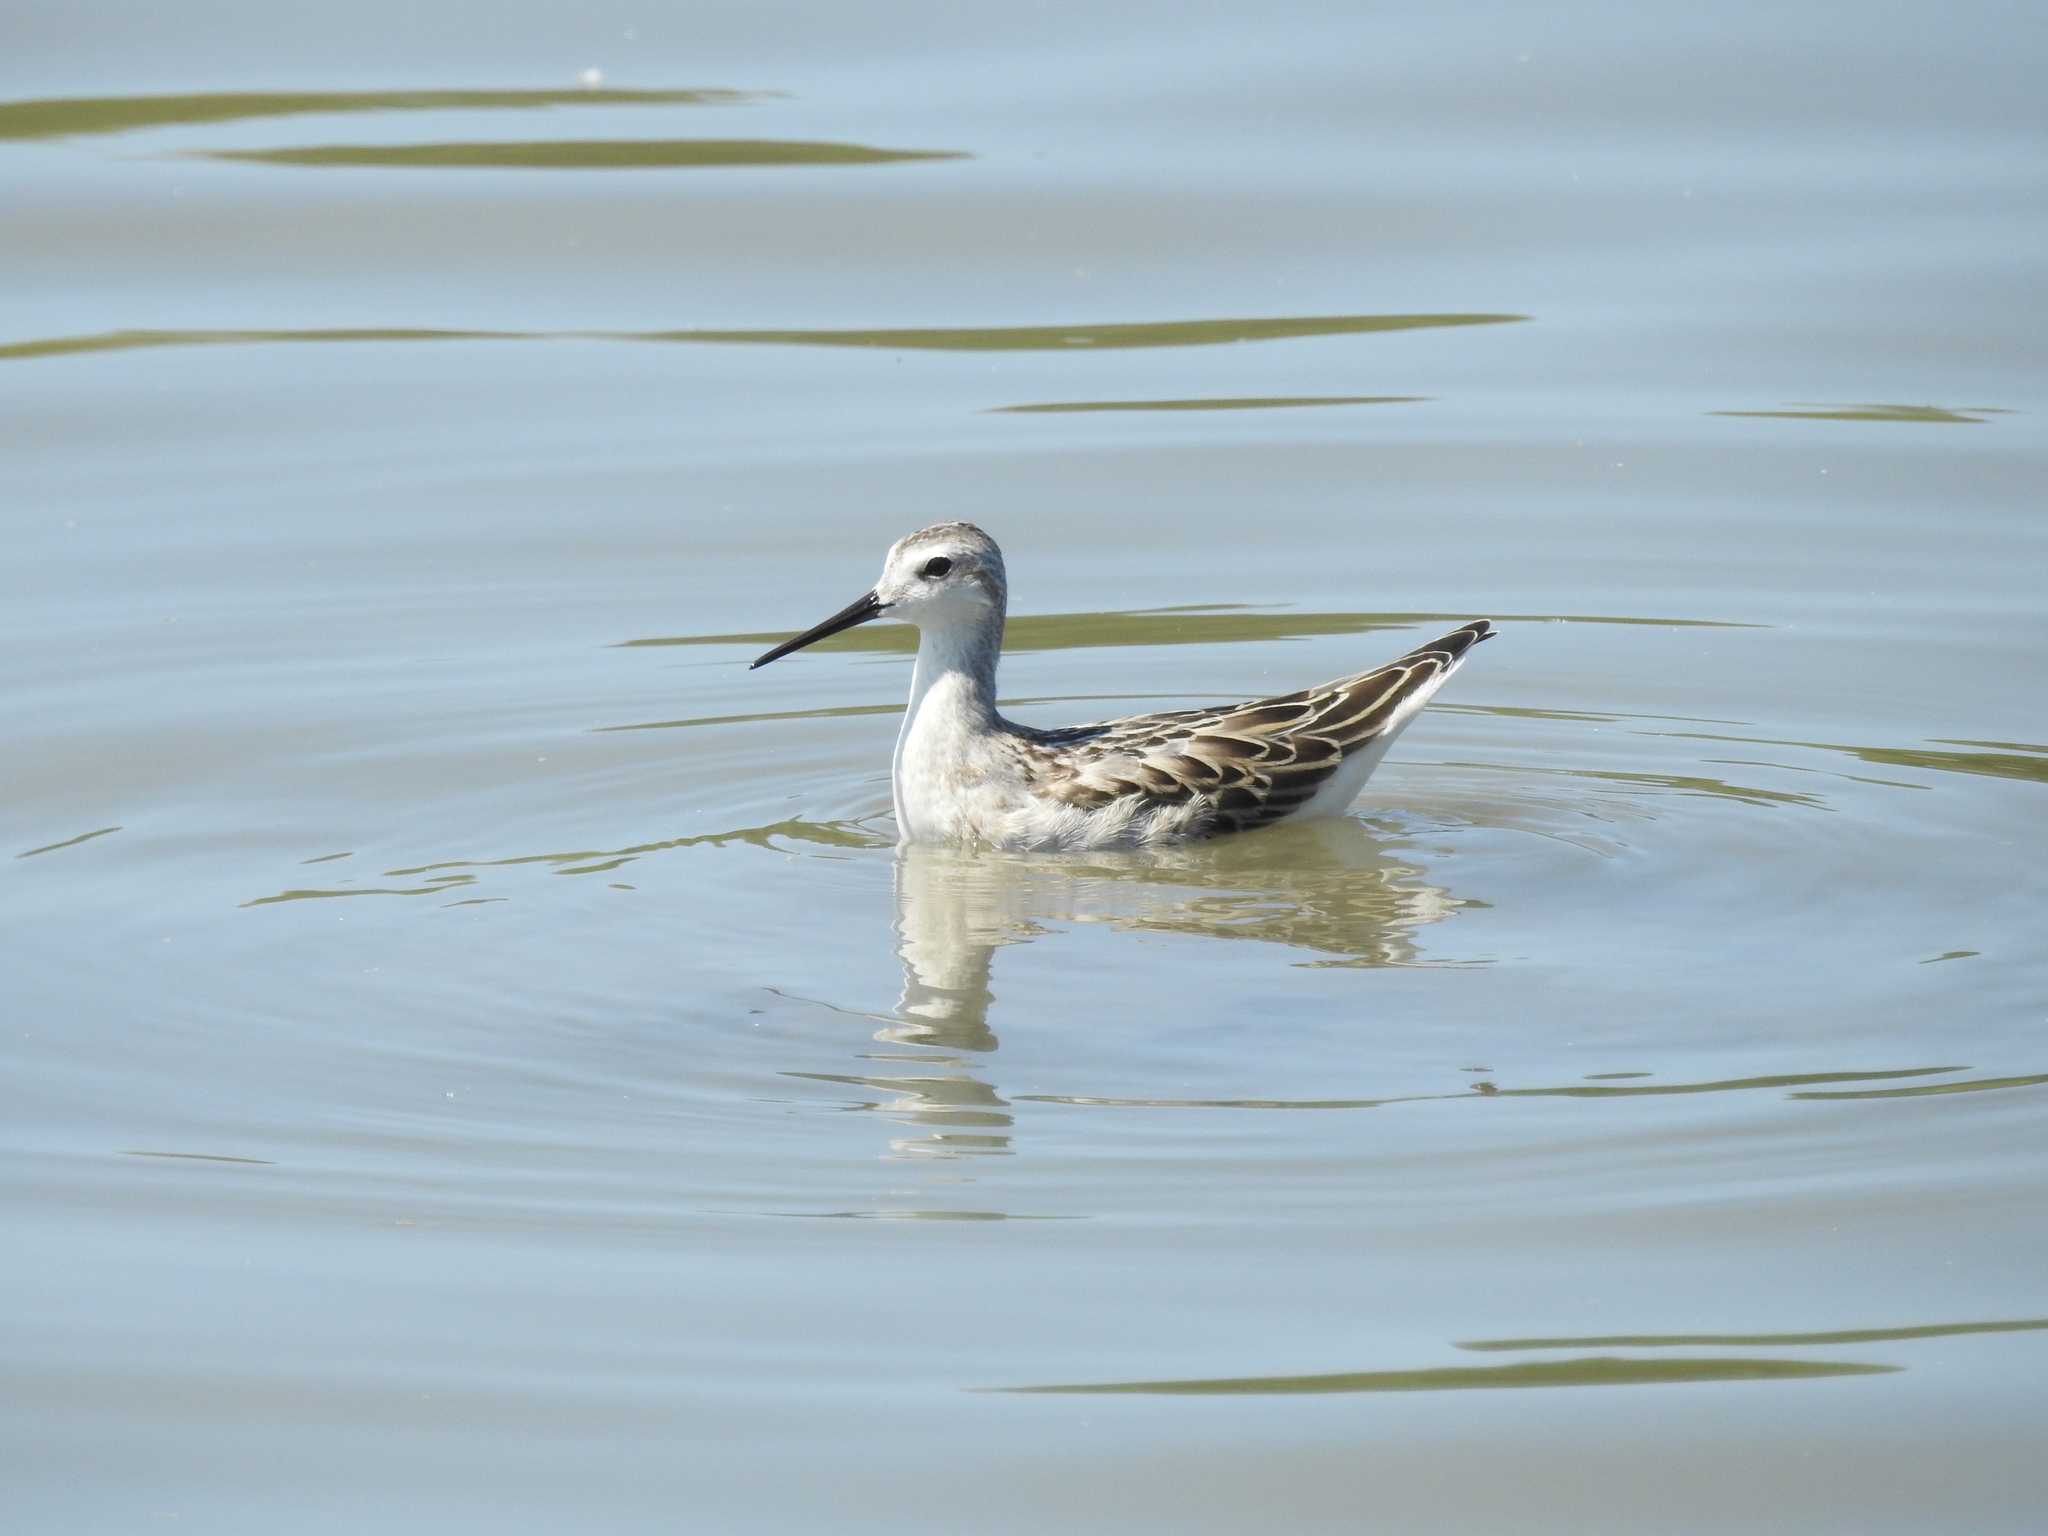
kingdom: Animalia
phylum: Chordata
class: Aves
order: Charadriiformes
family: Scolopacidae
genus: Phalaropus
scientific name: Phalaropus tricolor
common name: Wilson's phalarope
